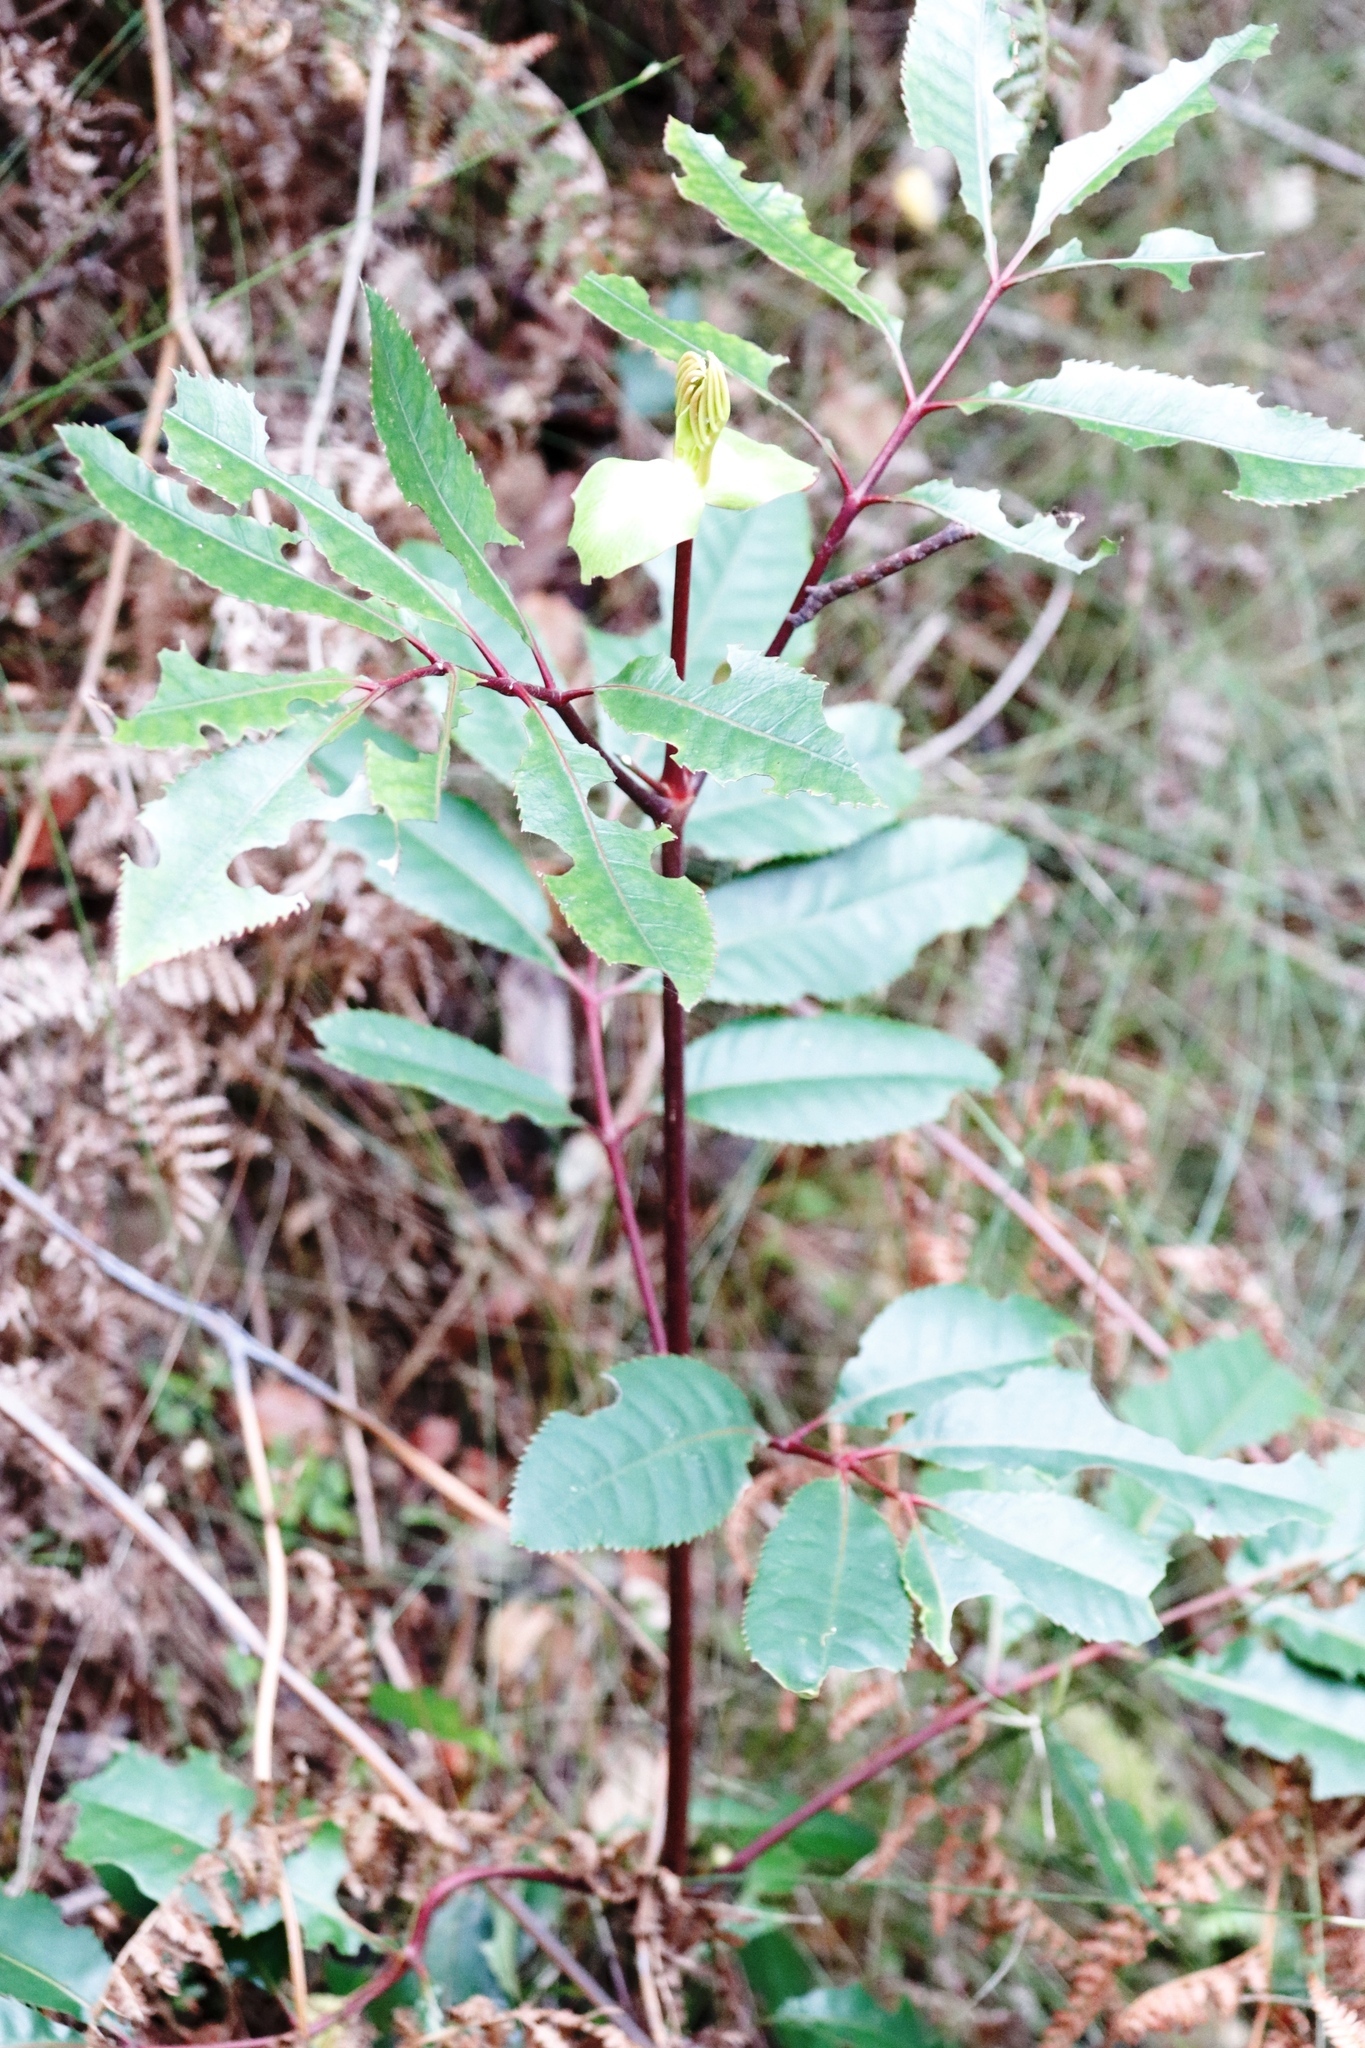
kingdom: Plantae
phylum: Tracheophyta
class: Magnoliopsida
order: Oxalidales
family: Cunoniaceae
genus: Cunonia
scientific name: Cunonia capensis
